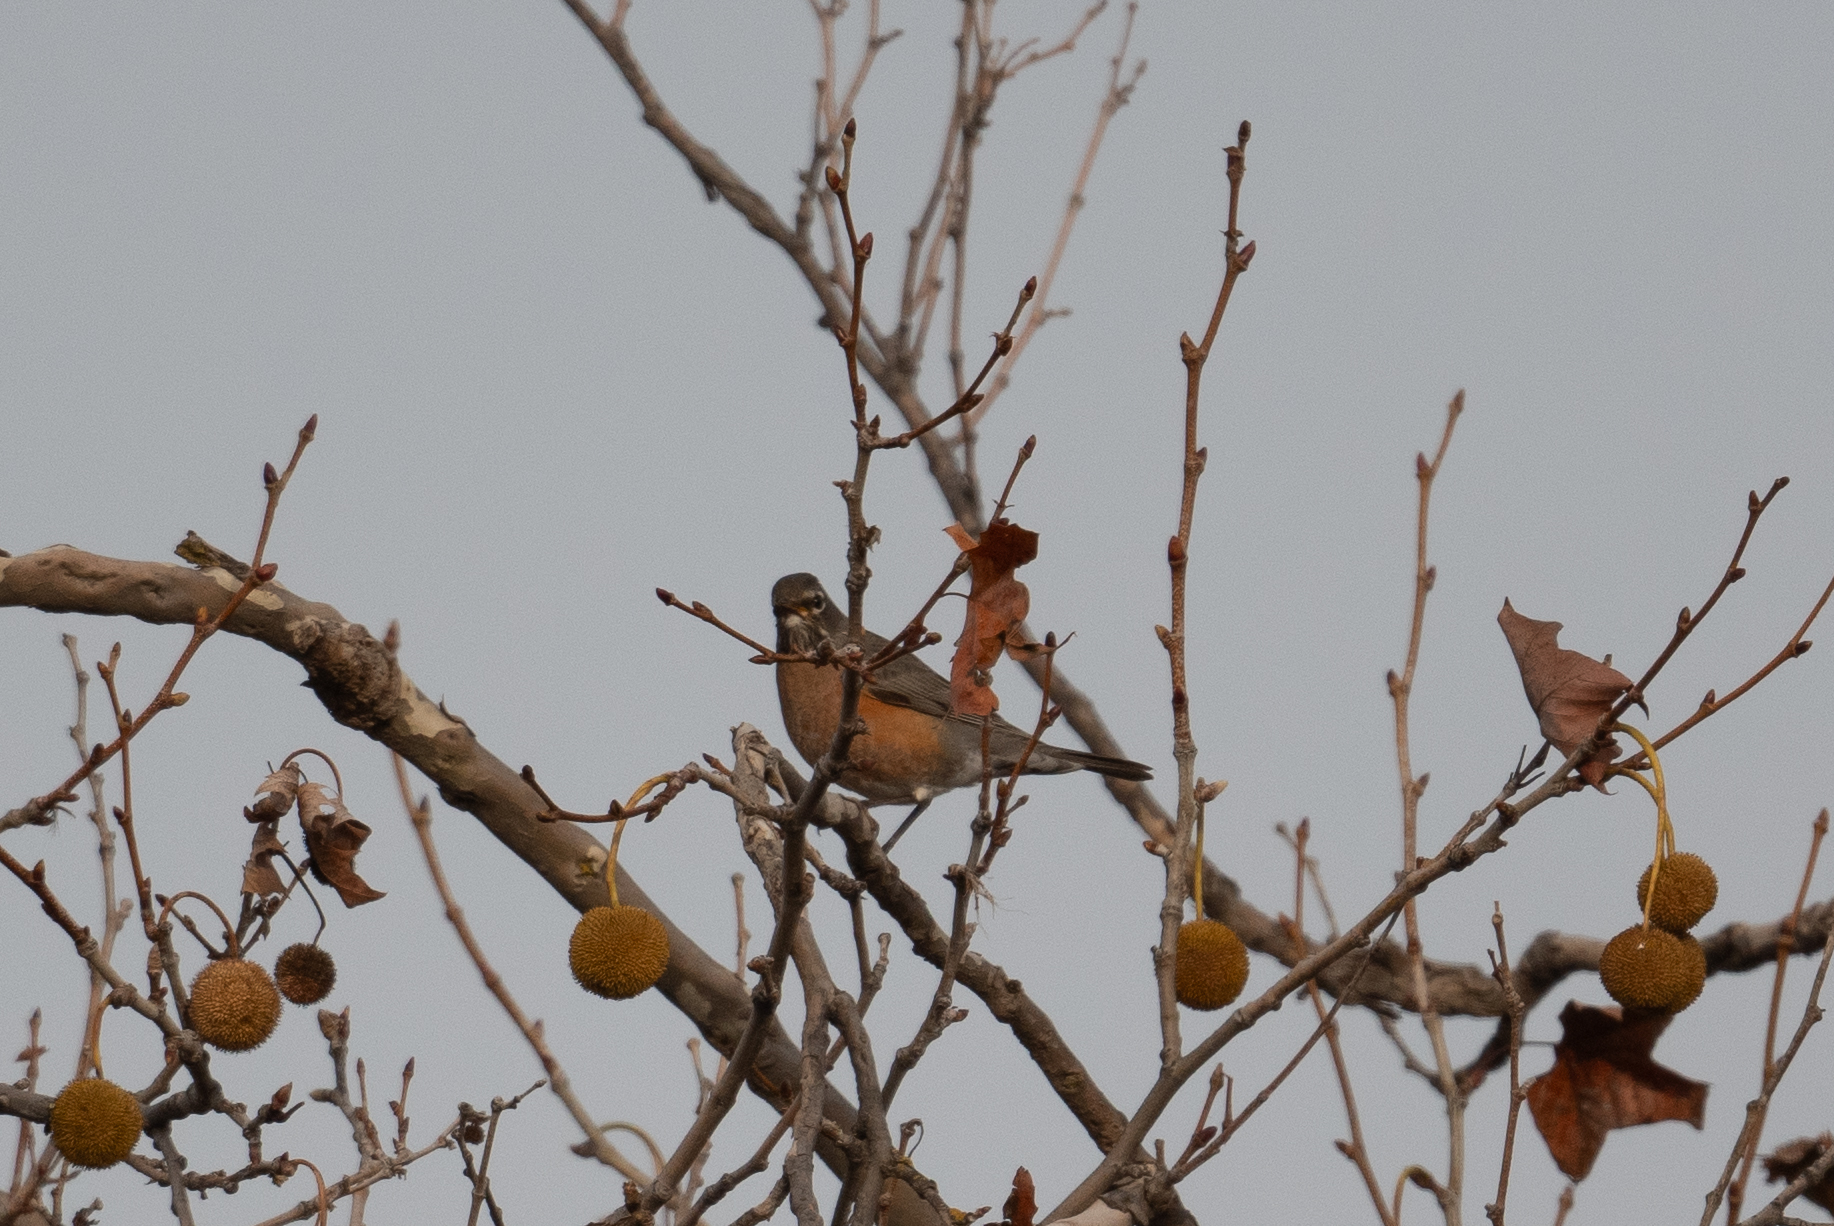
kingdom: Animalia
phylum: Chordata
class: Aves
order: Passeriformes
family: Turdidae
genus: Turdus
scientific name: Turdus migratorius
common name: American robin
